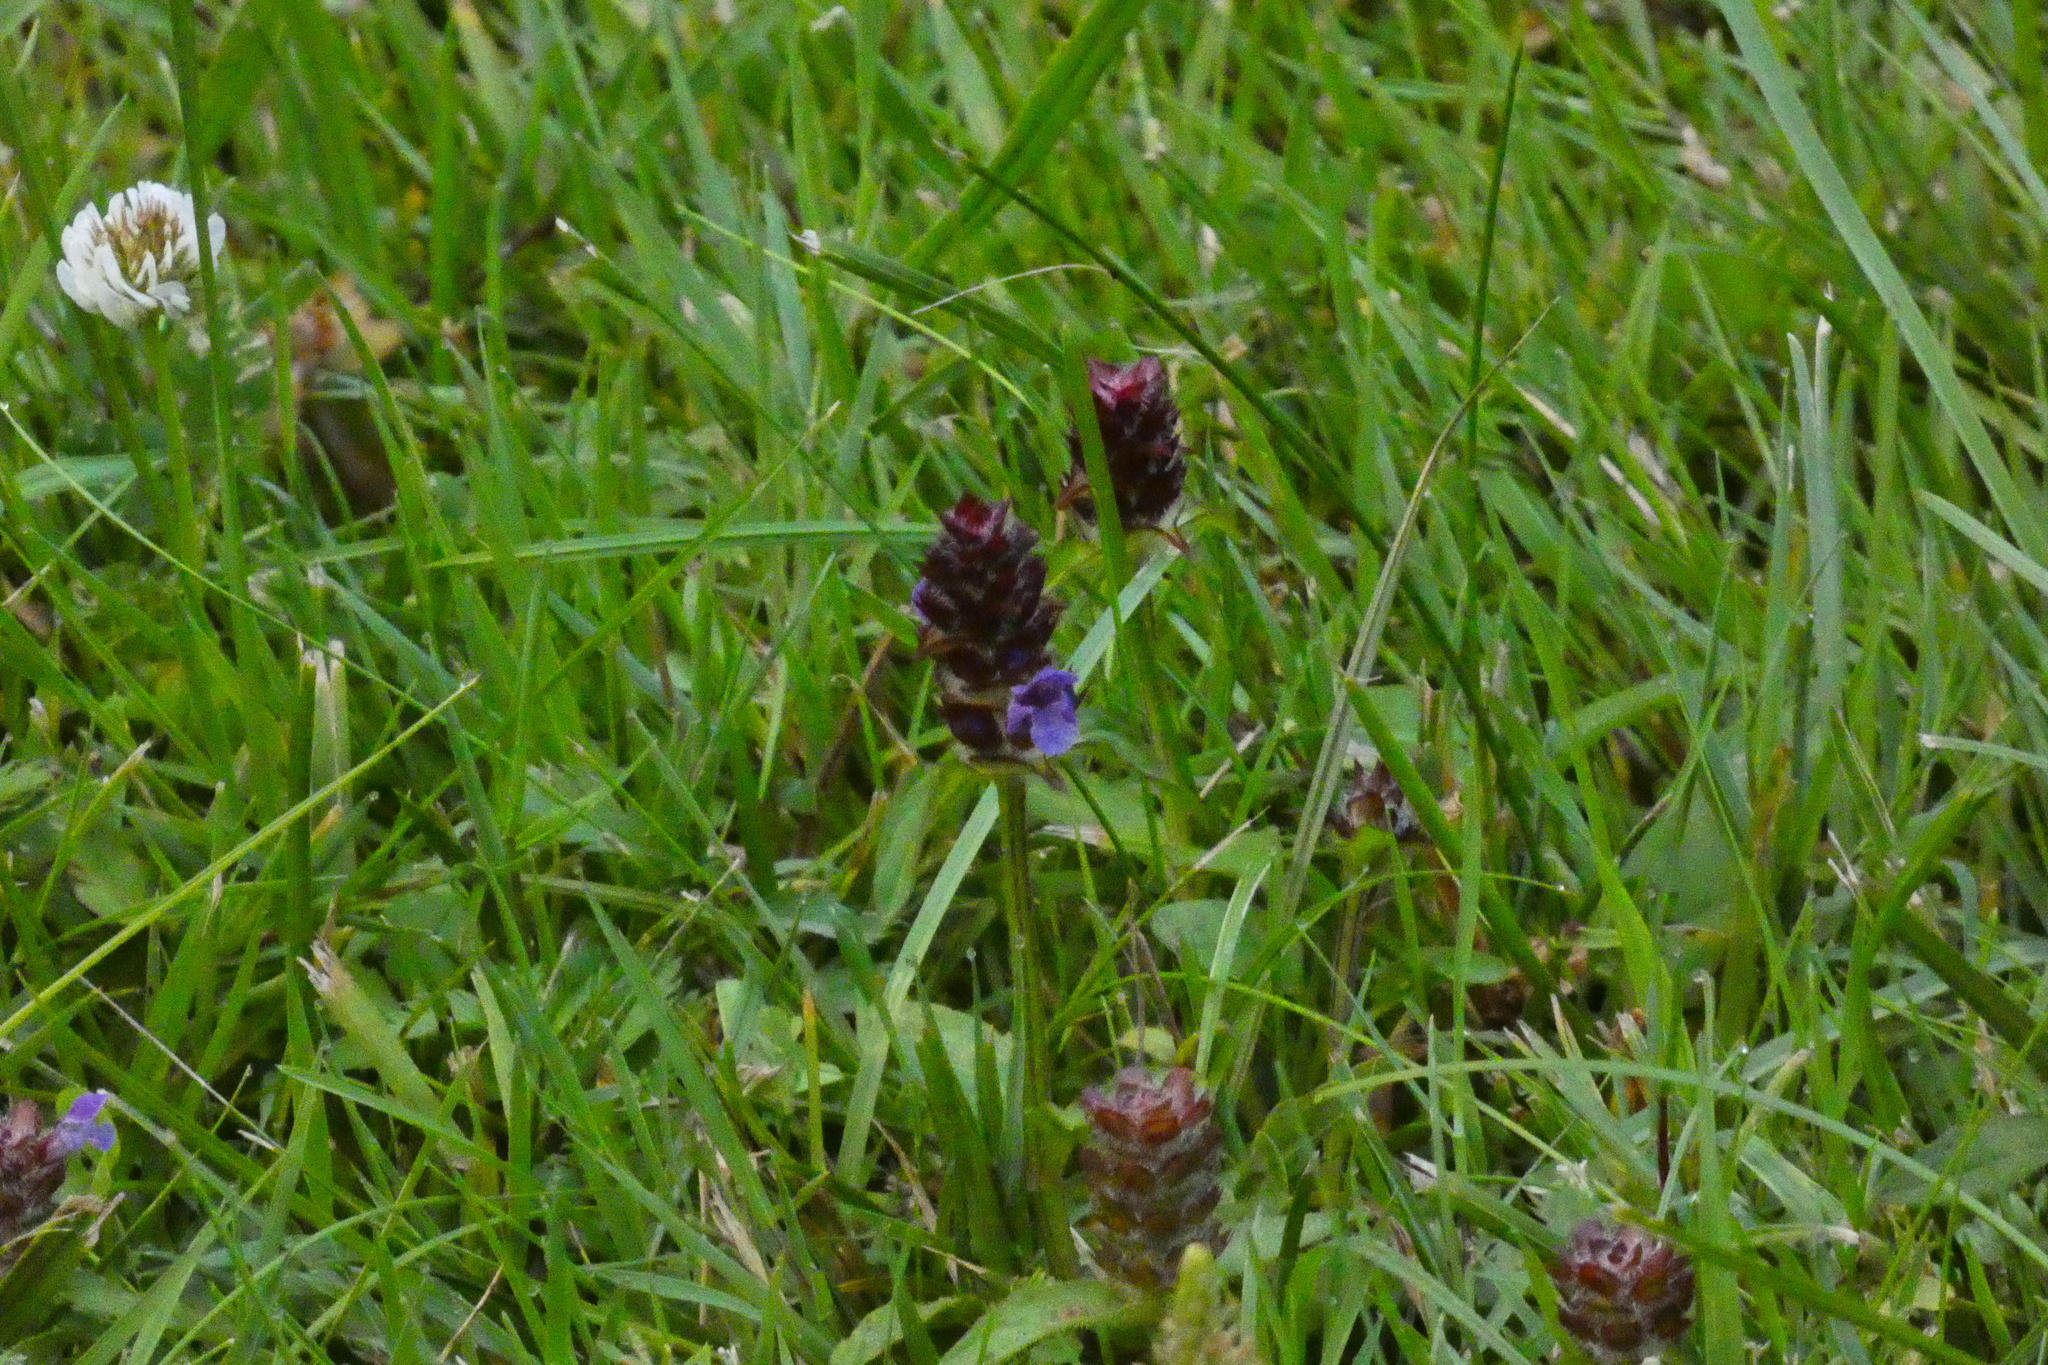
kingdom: Plantae
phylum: Tracheophyta
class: Magnoliopsida
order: Lamiales
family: Lamiaceae
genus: Prunella
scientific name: Prunella vulgaris
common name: Heal-all
